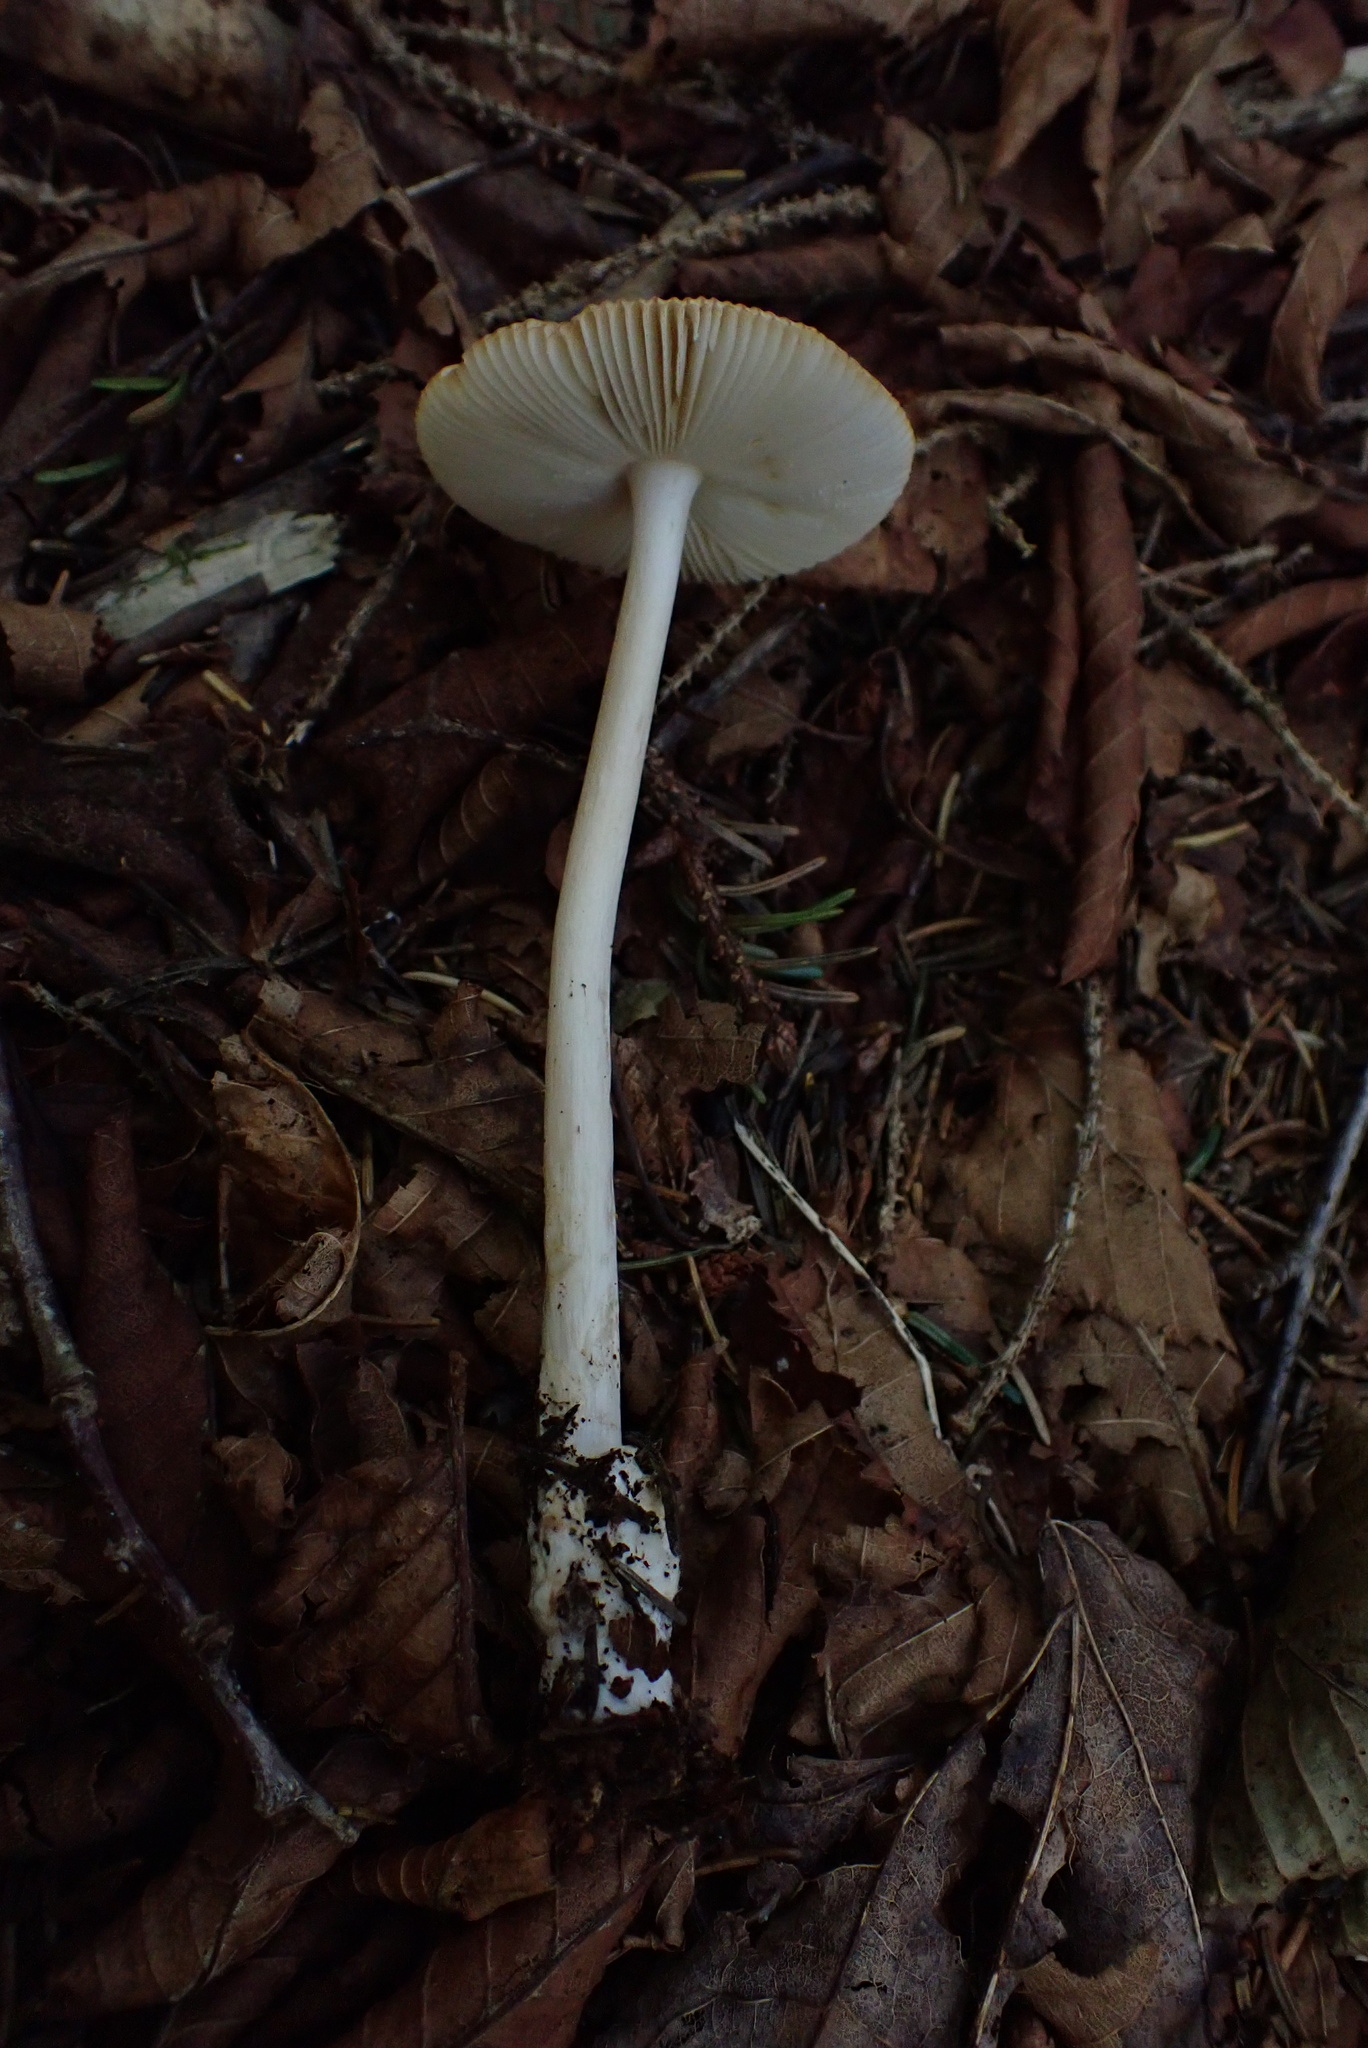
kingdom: Fungi
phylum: Basidiomycota
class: Agaricomycetes
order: Agaricales
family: Amanitaceae
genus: Amanita
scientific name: Amanita fulva
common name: Tawny grisette
